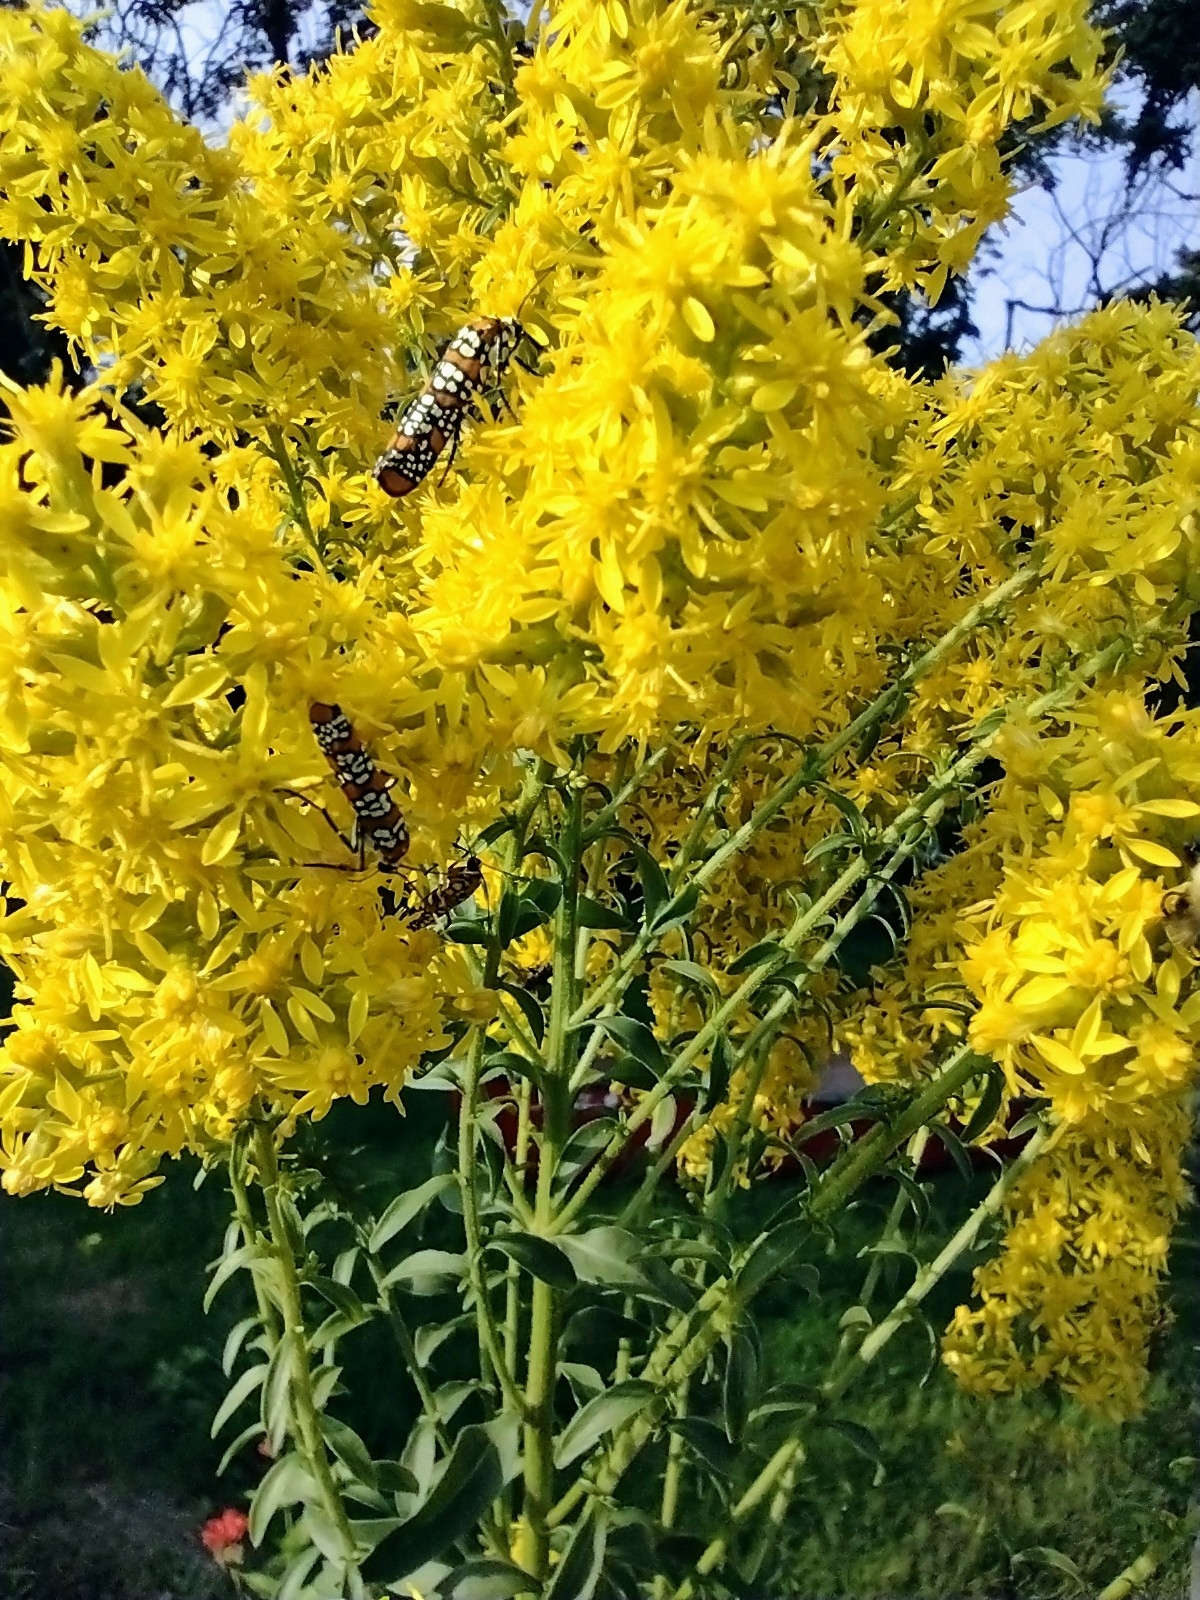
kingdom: Animalia
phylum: Arthropoda
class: Insecta
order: Lepidoptera
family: Attevidae
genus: Atteva
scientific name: Atteva punctella
